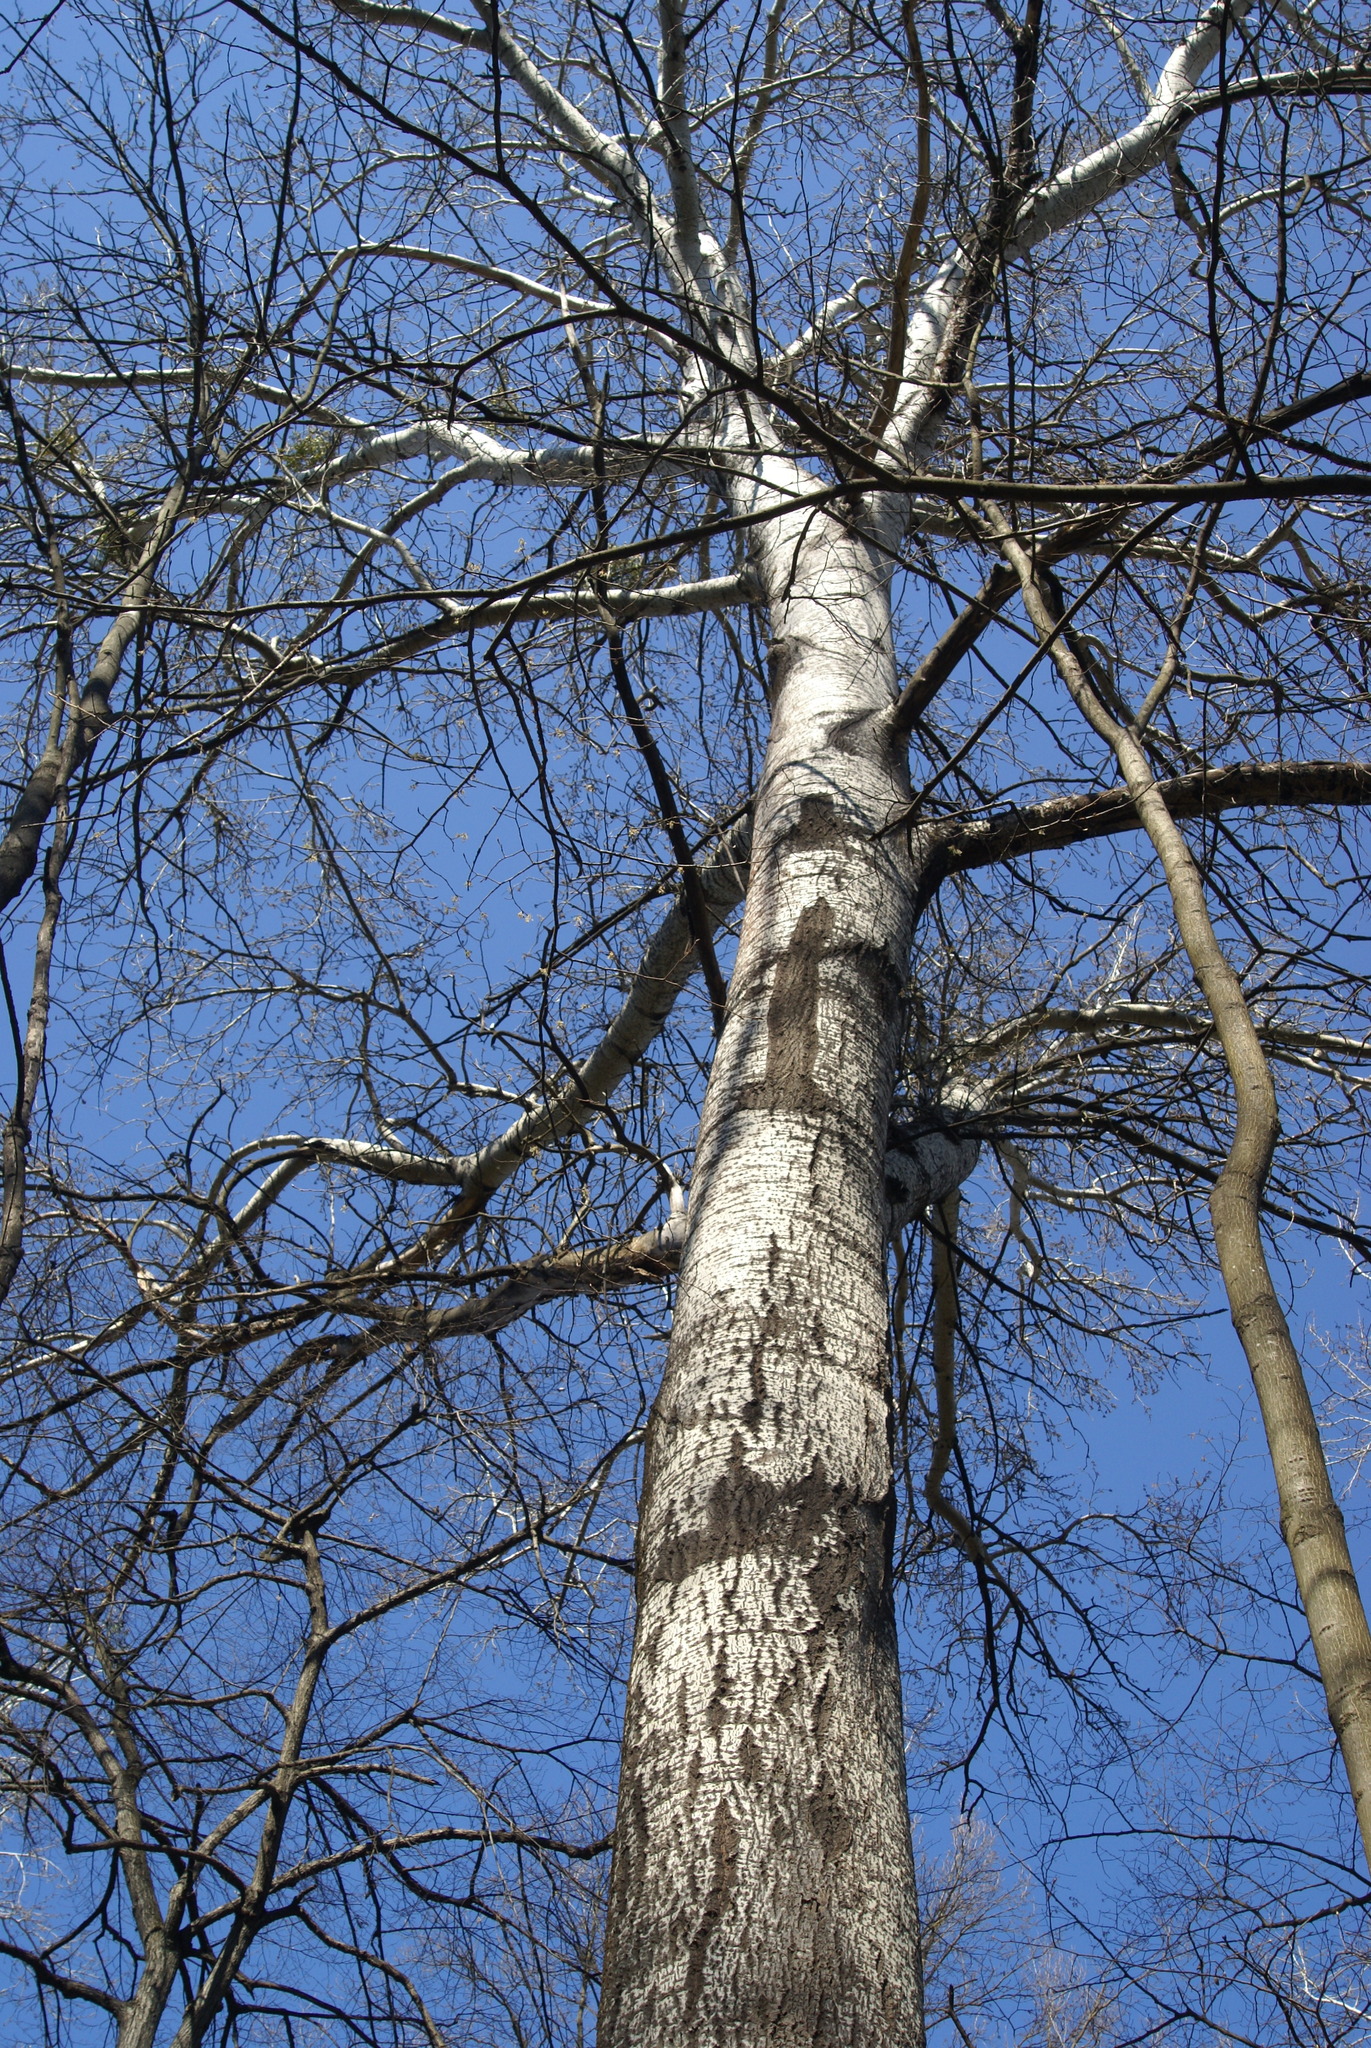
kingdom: Plantae
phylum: Tracheophyta
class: Magnoliopsida
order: Malpighiales
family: Salicaceae
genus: Populus
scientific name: Populus alba
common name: White poplar
